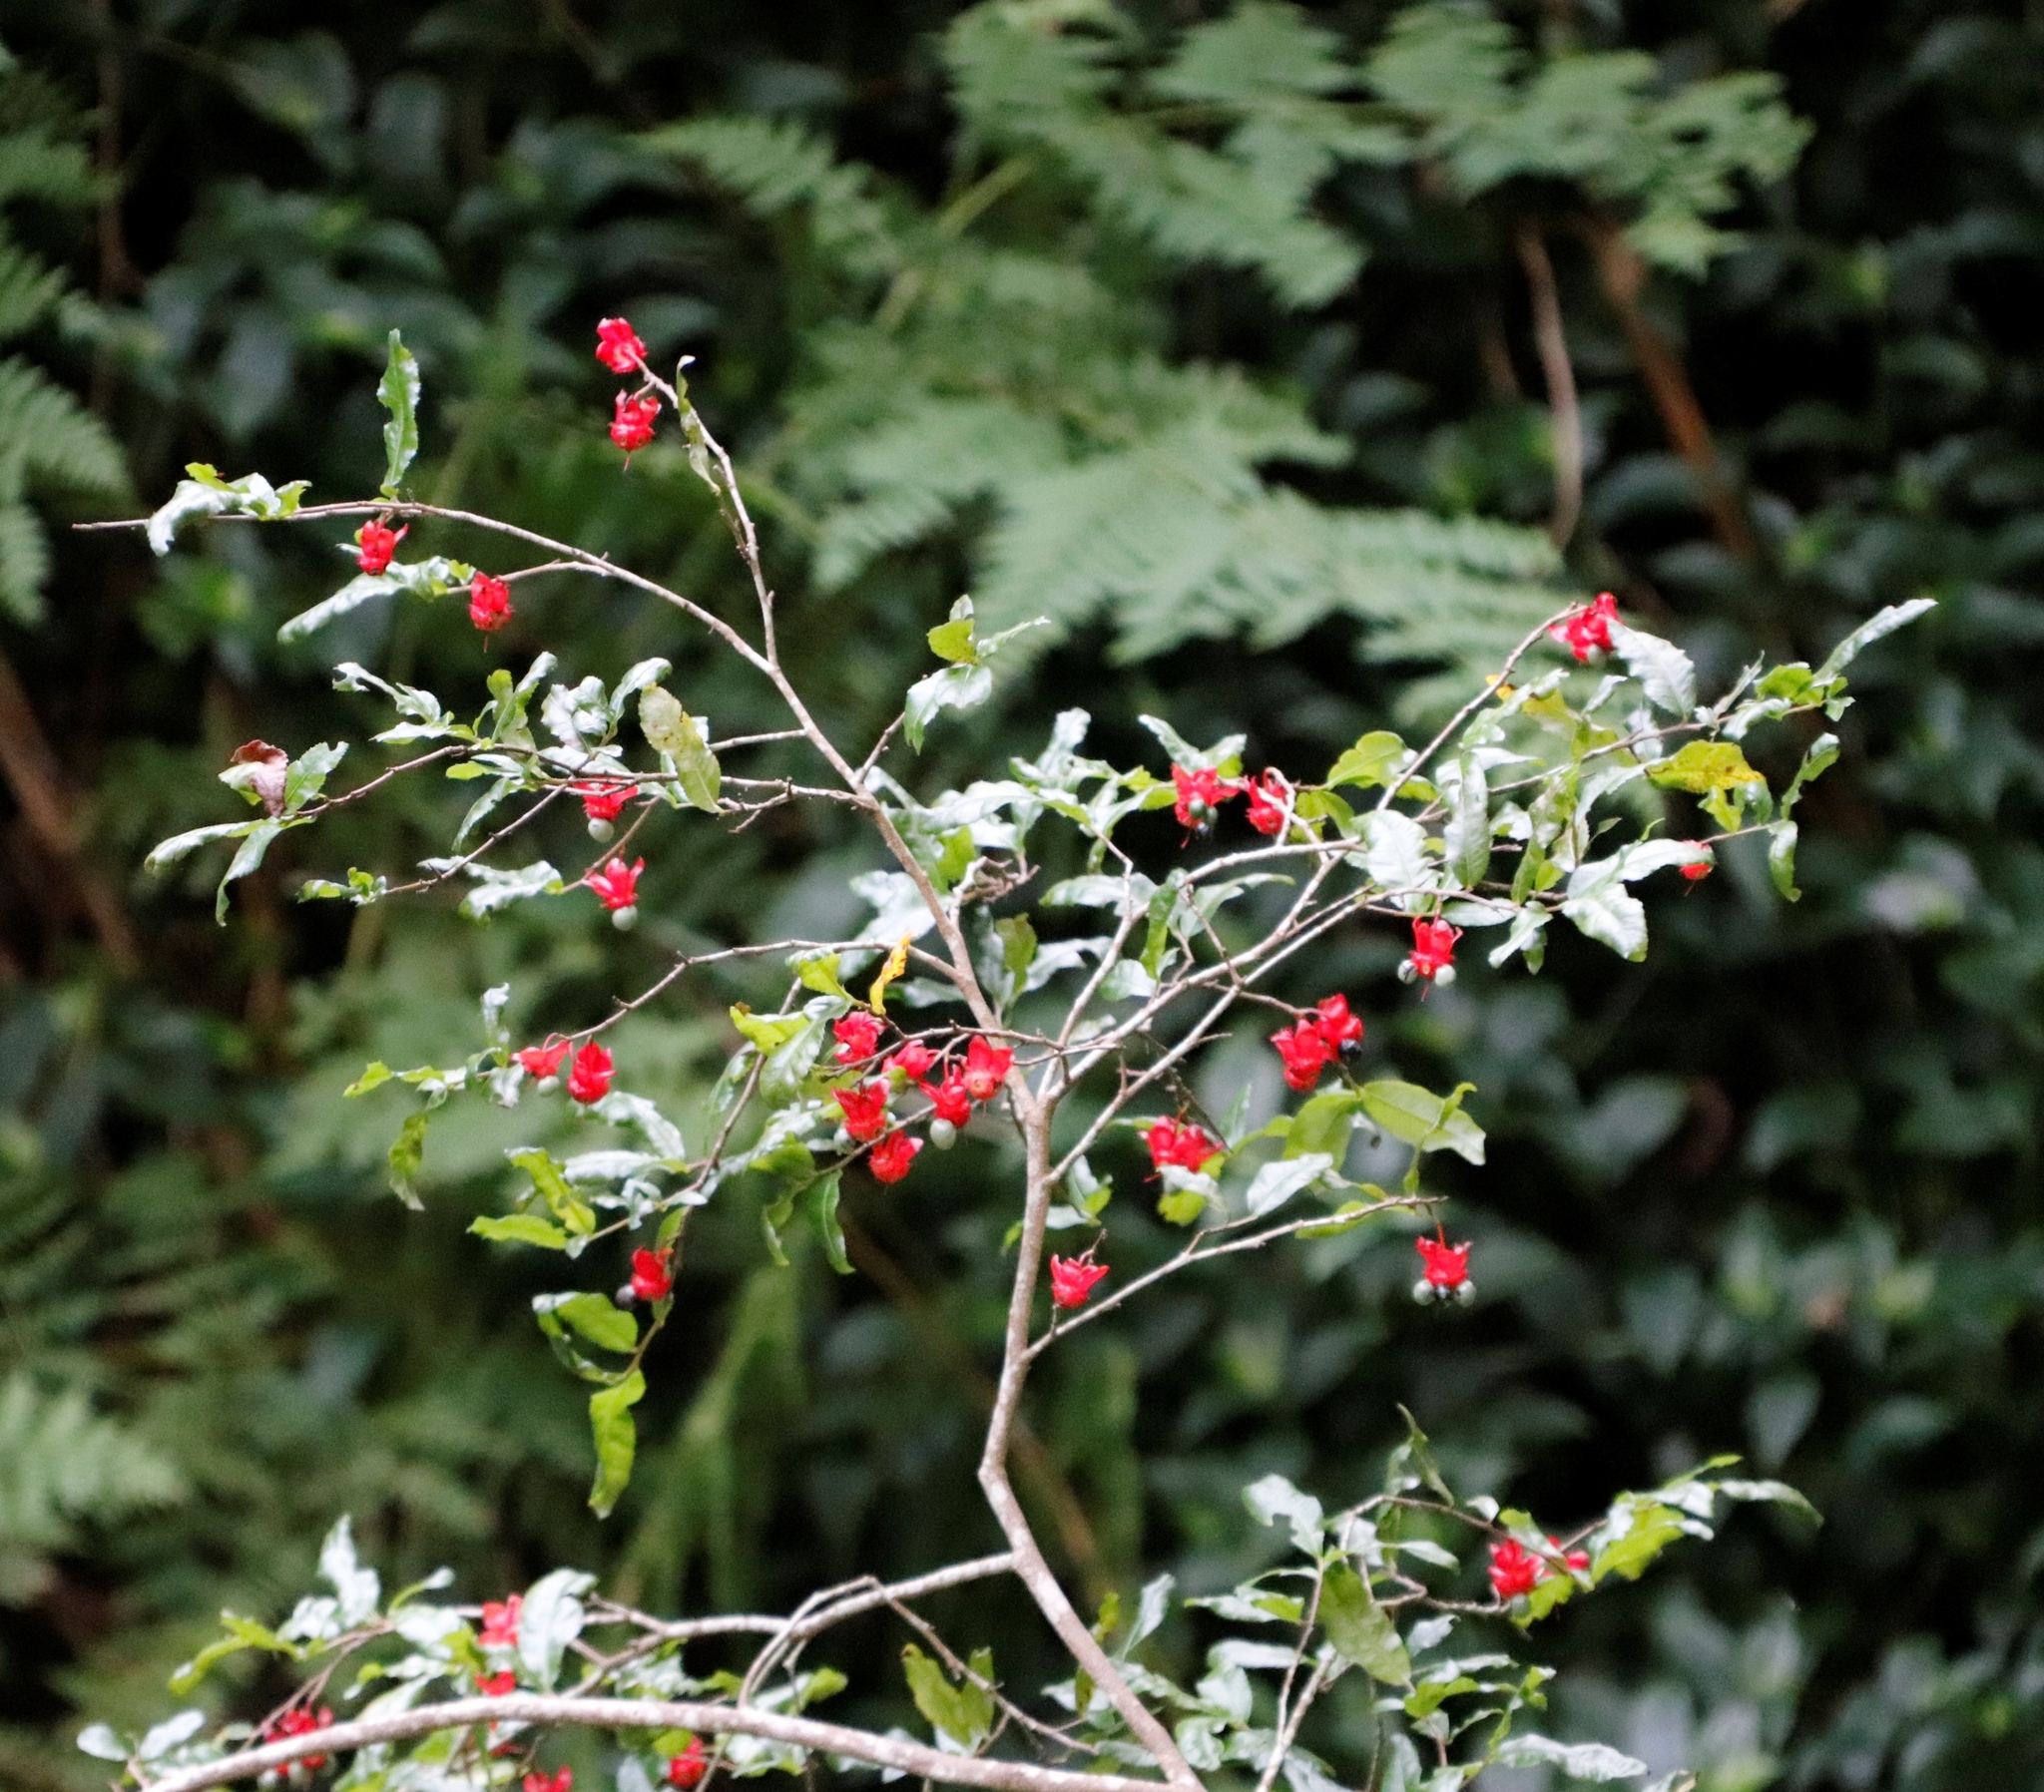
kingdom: Plantae
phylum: Tracheophyta
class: Magnoliopsida
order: Malpighiales
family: Ochnaceae
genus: Ochna
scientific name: Ochna serrulata
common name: Mickey mouse plant
